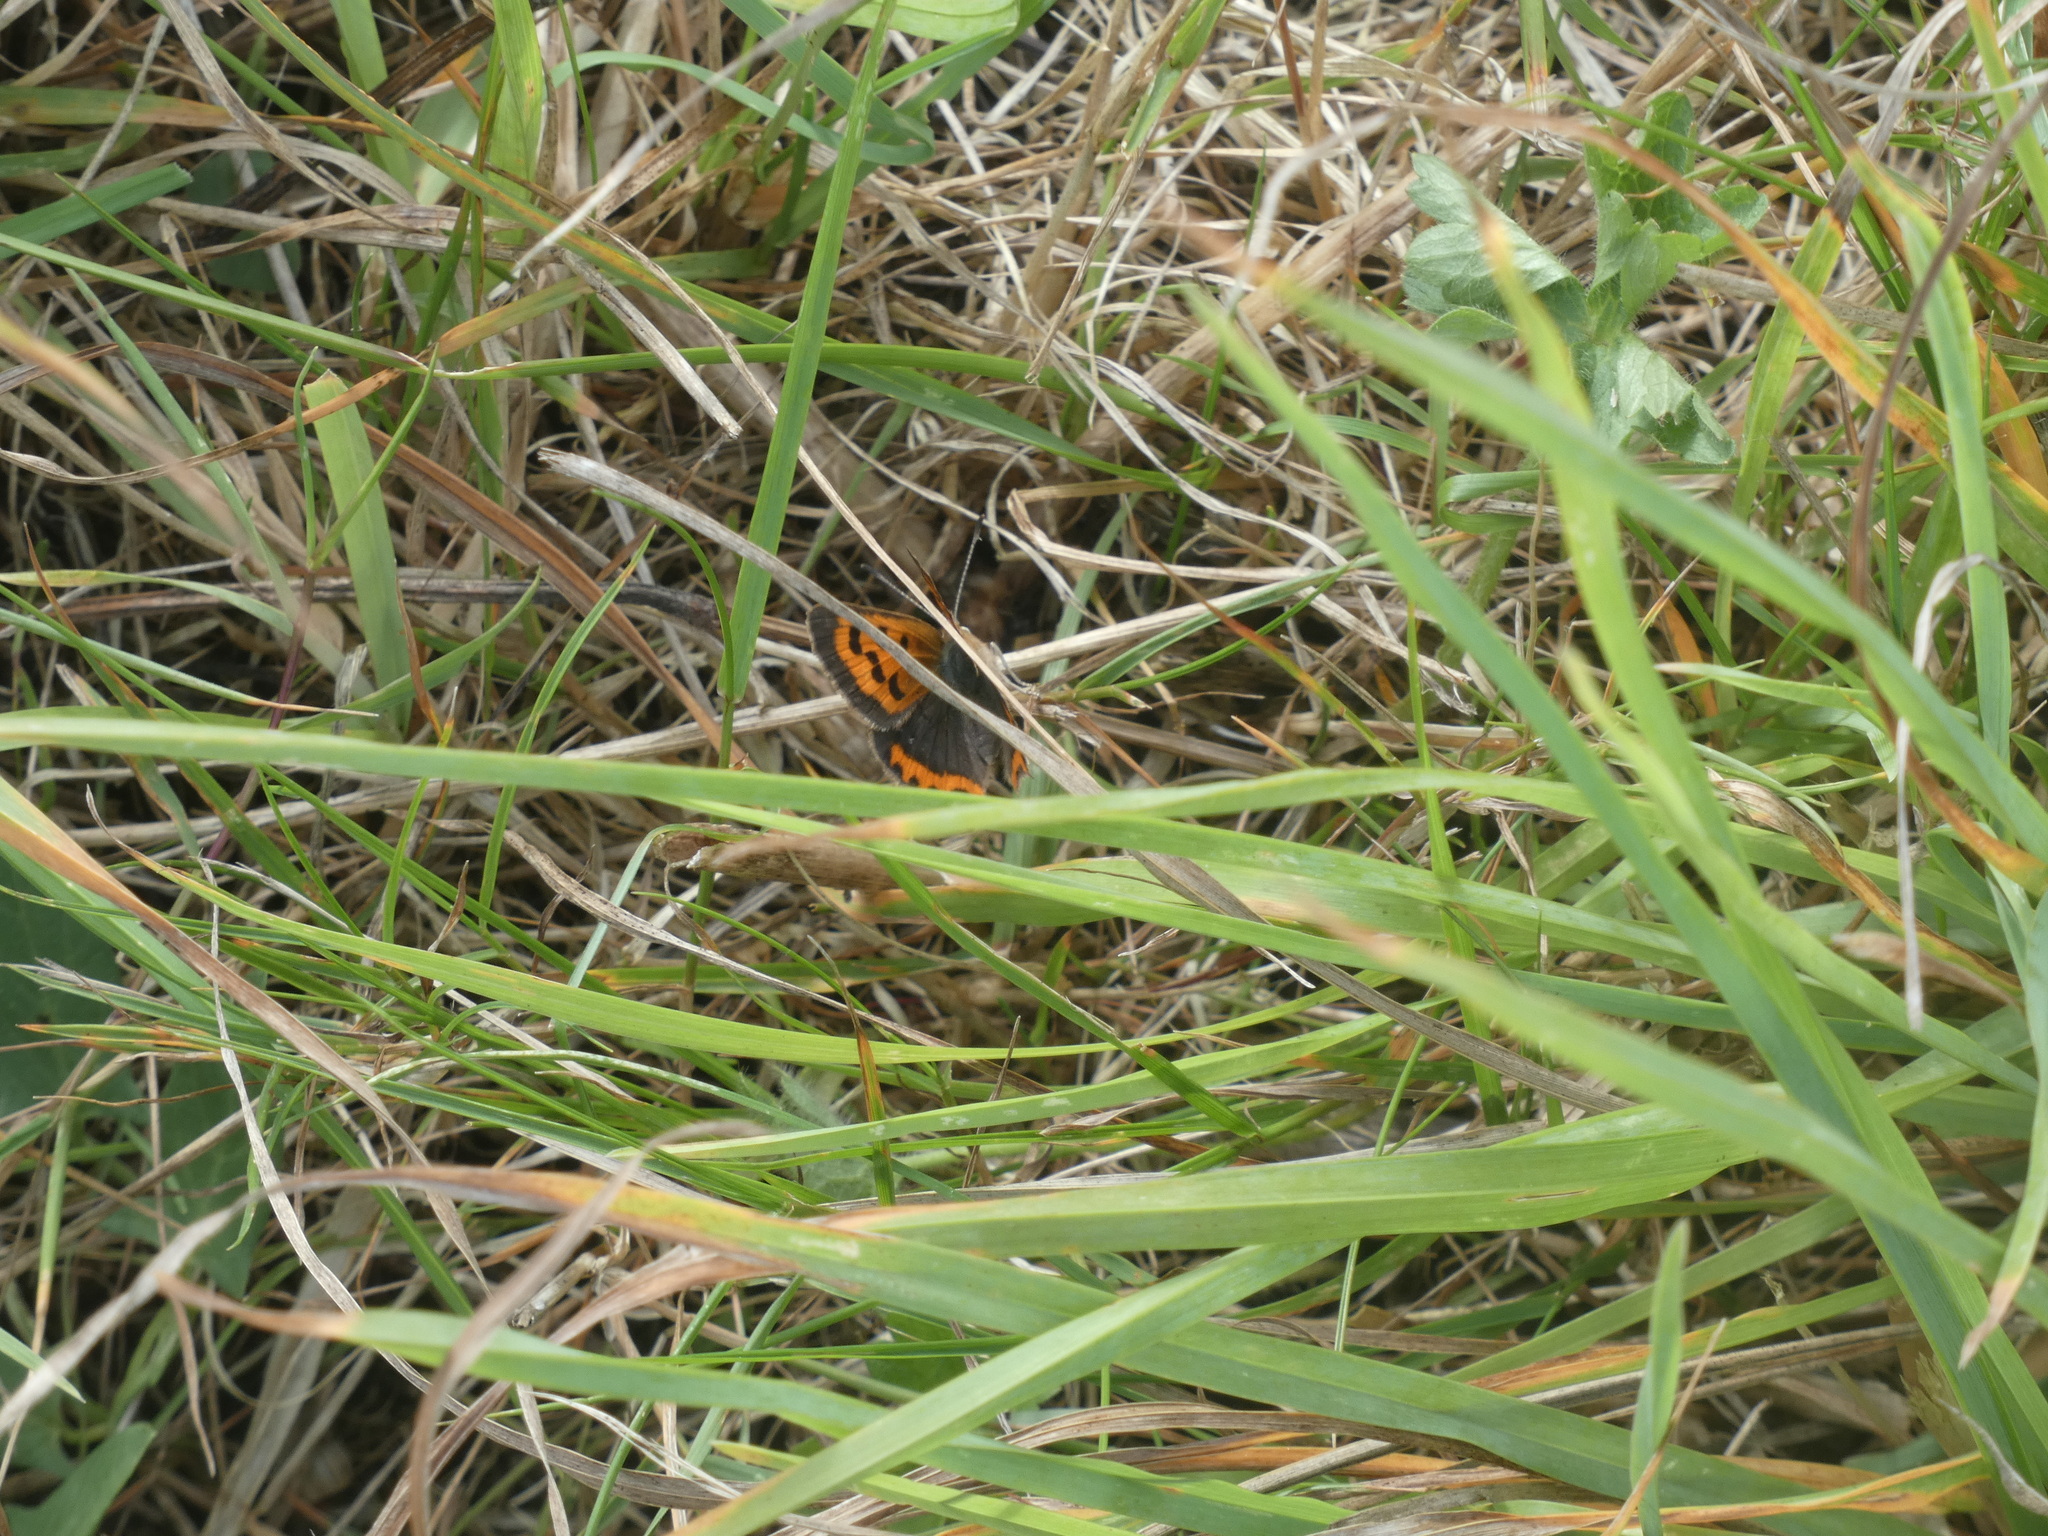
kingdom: Animalia
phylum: Arthropoda
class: Insecta
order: Lepidoptera
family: Lycaenidae
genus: Lycaena
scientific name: Lycaena phlaeas
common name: Small copper
